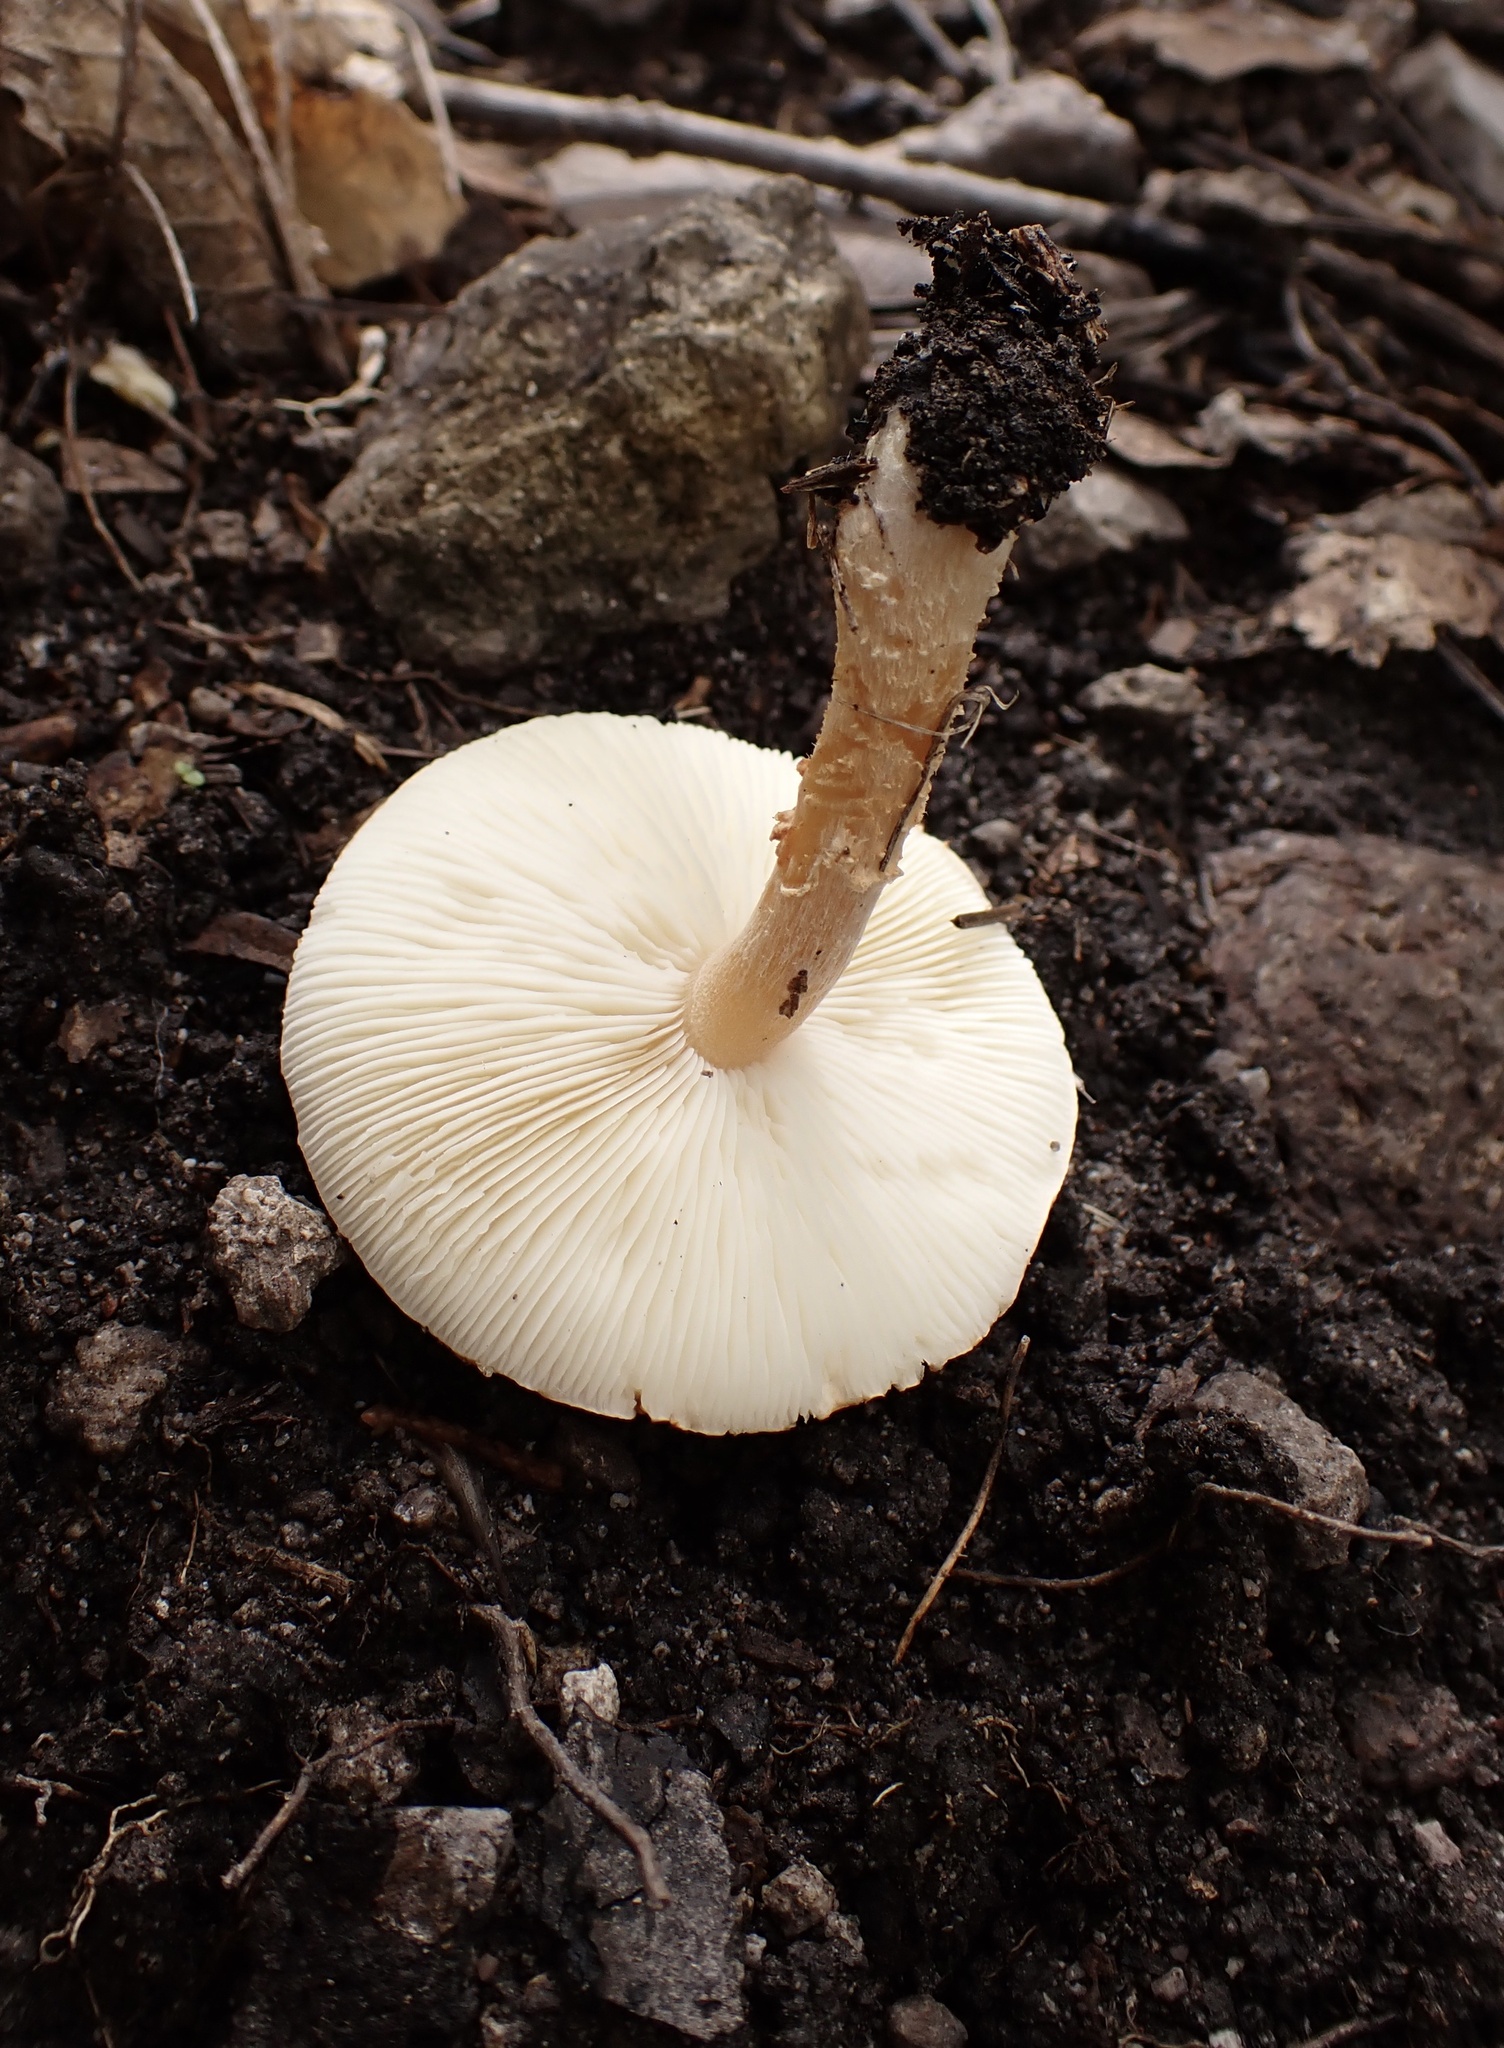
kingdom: Fungi
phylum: Basidiomycota
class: Agaricomycetes
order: Agaricales
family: Agaricaceae
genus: Cystodermella
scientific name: Cystodermella cinnabarina
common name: Cinnabar powdercap
